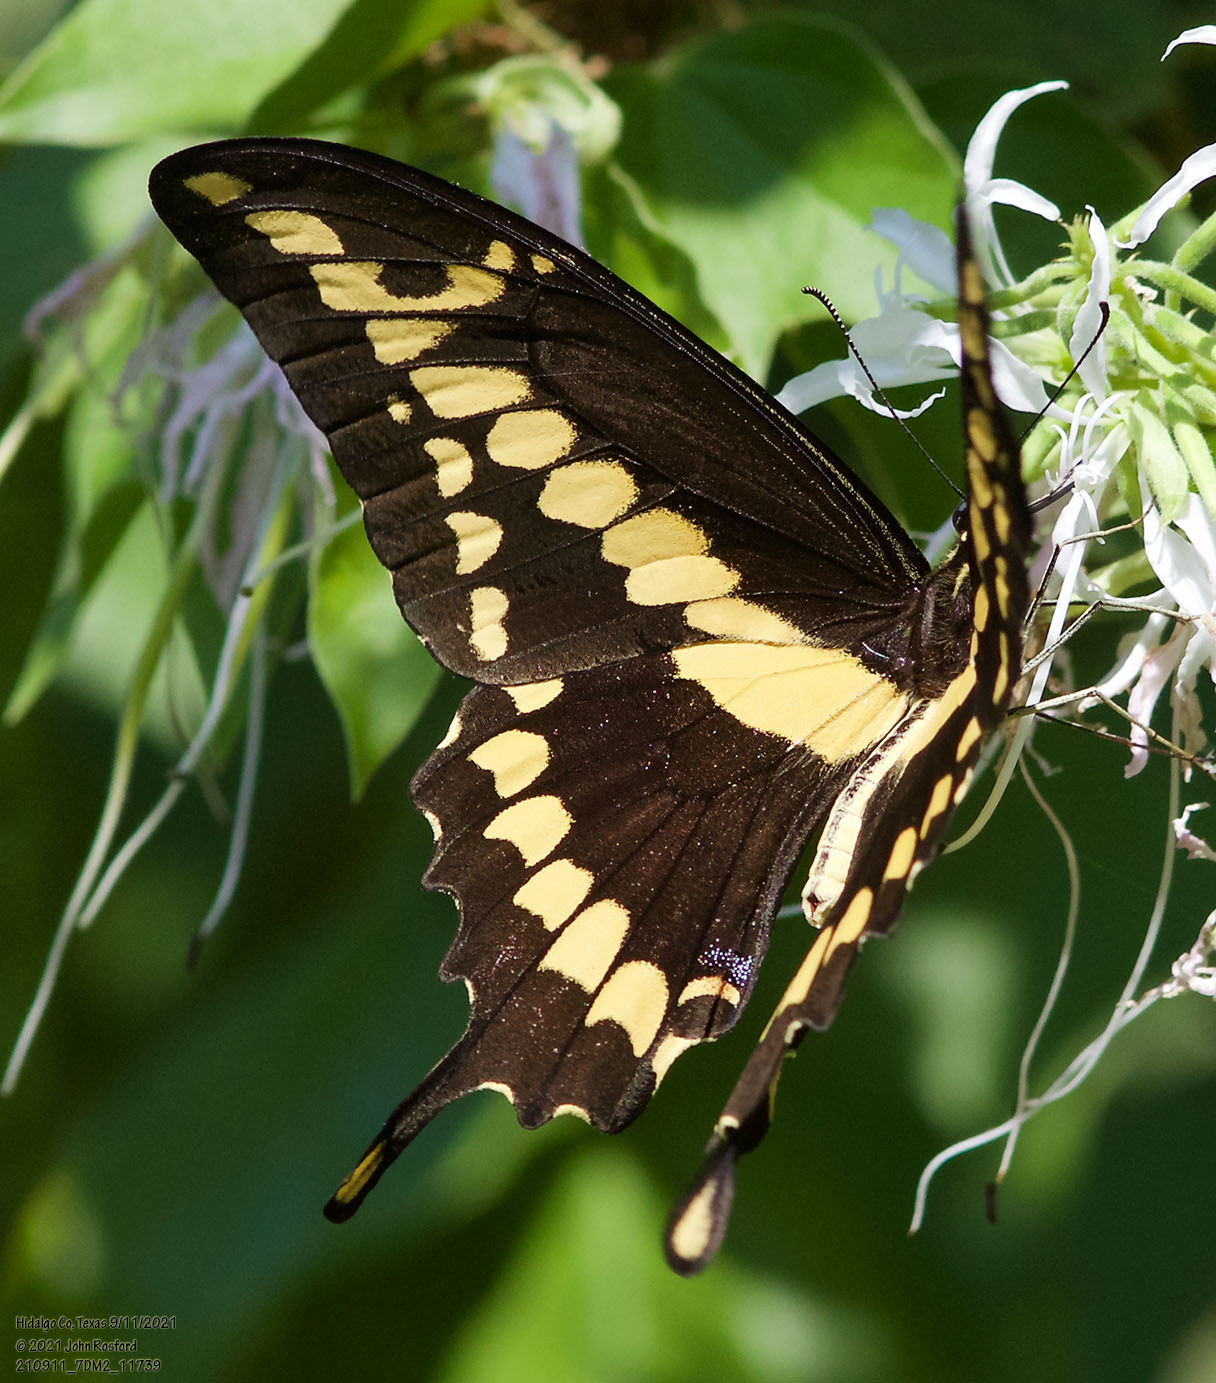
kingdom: Animalia
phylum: Arthropoda
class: Insecta
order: Lepidoptera
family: Papilionidae
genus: Papilio
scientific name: Papilio rumiko
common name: Western giant swallowtail
